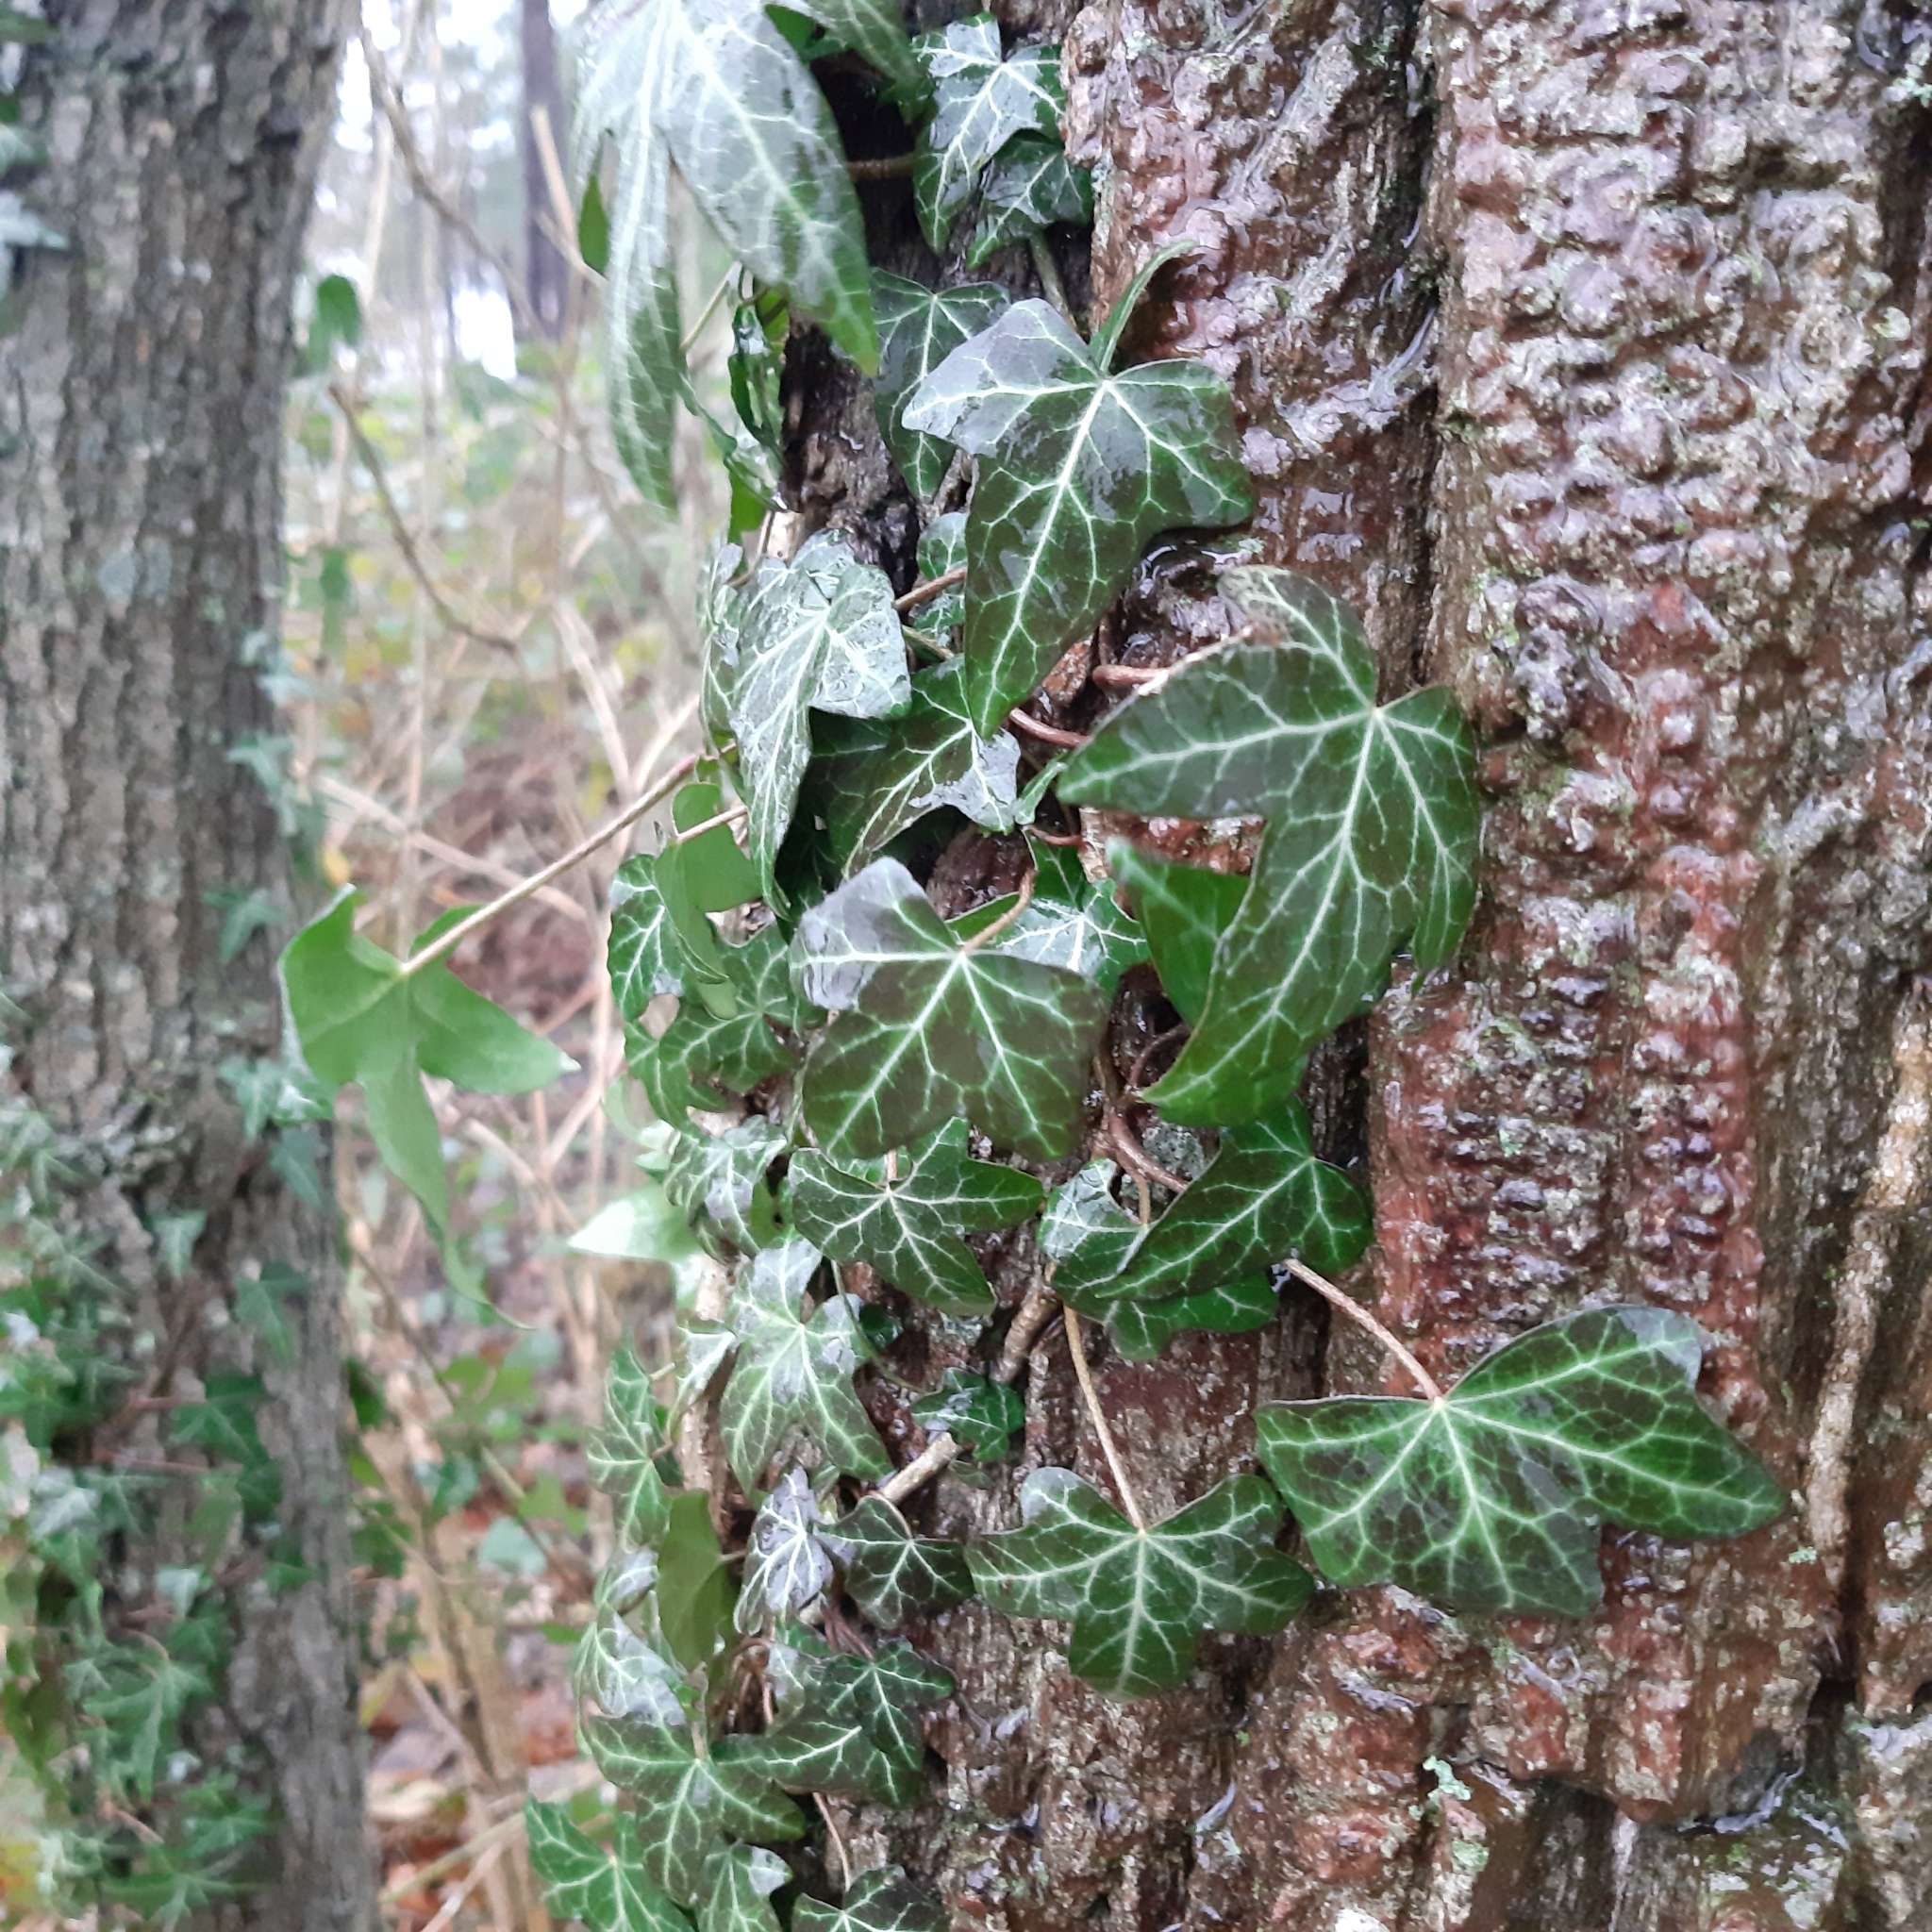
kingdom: Plantae
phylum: Tracheophyta
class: Magnoliopsida
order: Apiales
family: Araliaceae
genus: Hedera
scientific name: Hedera helix
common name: Ivy
